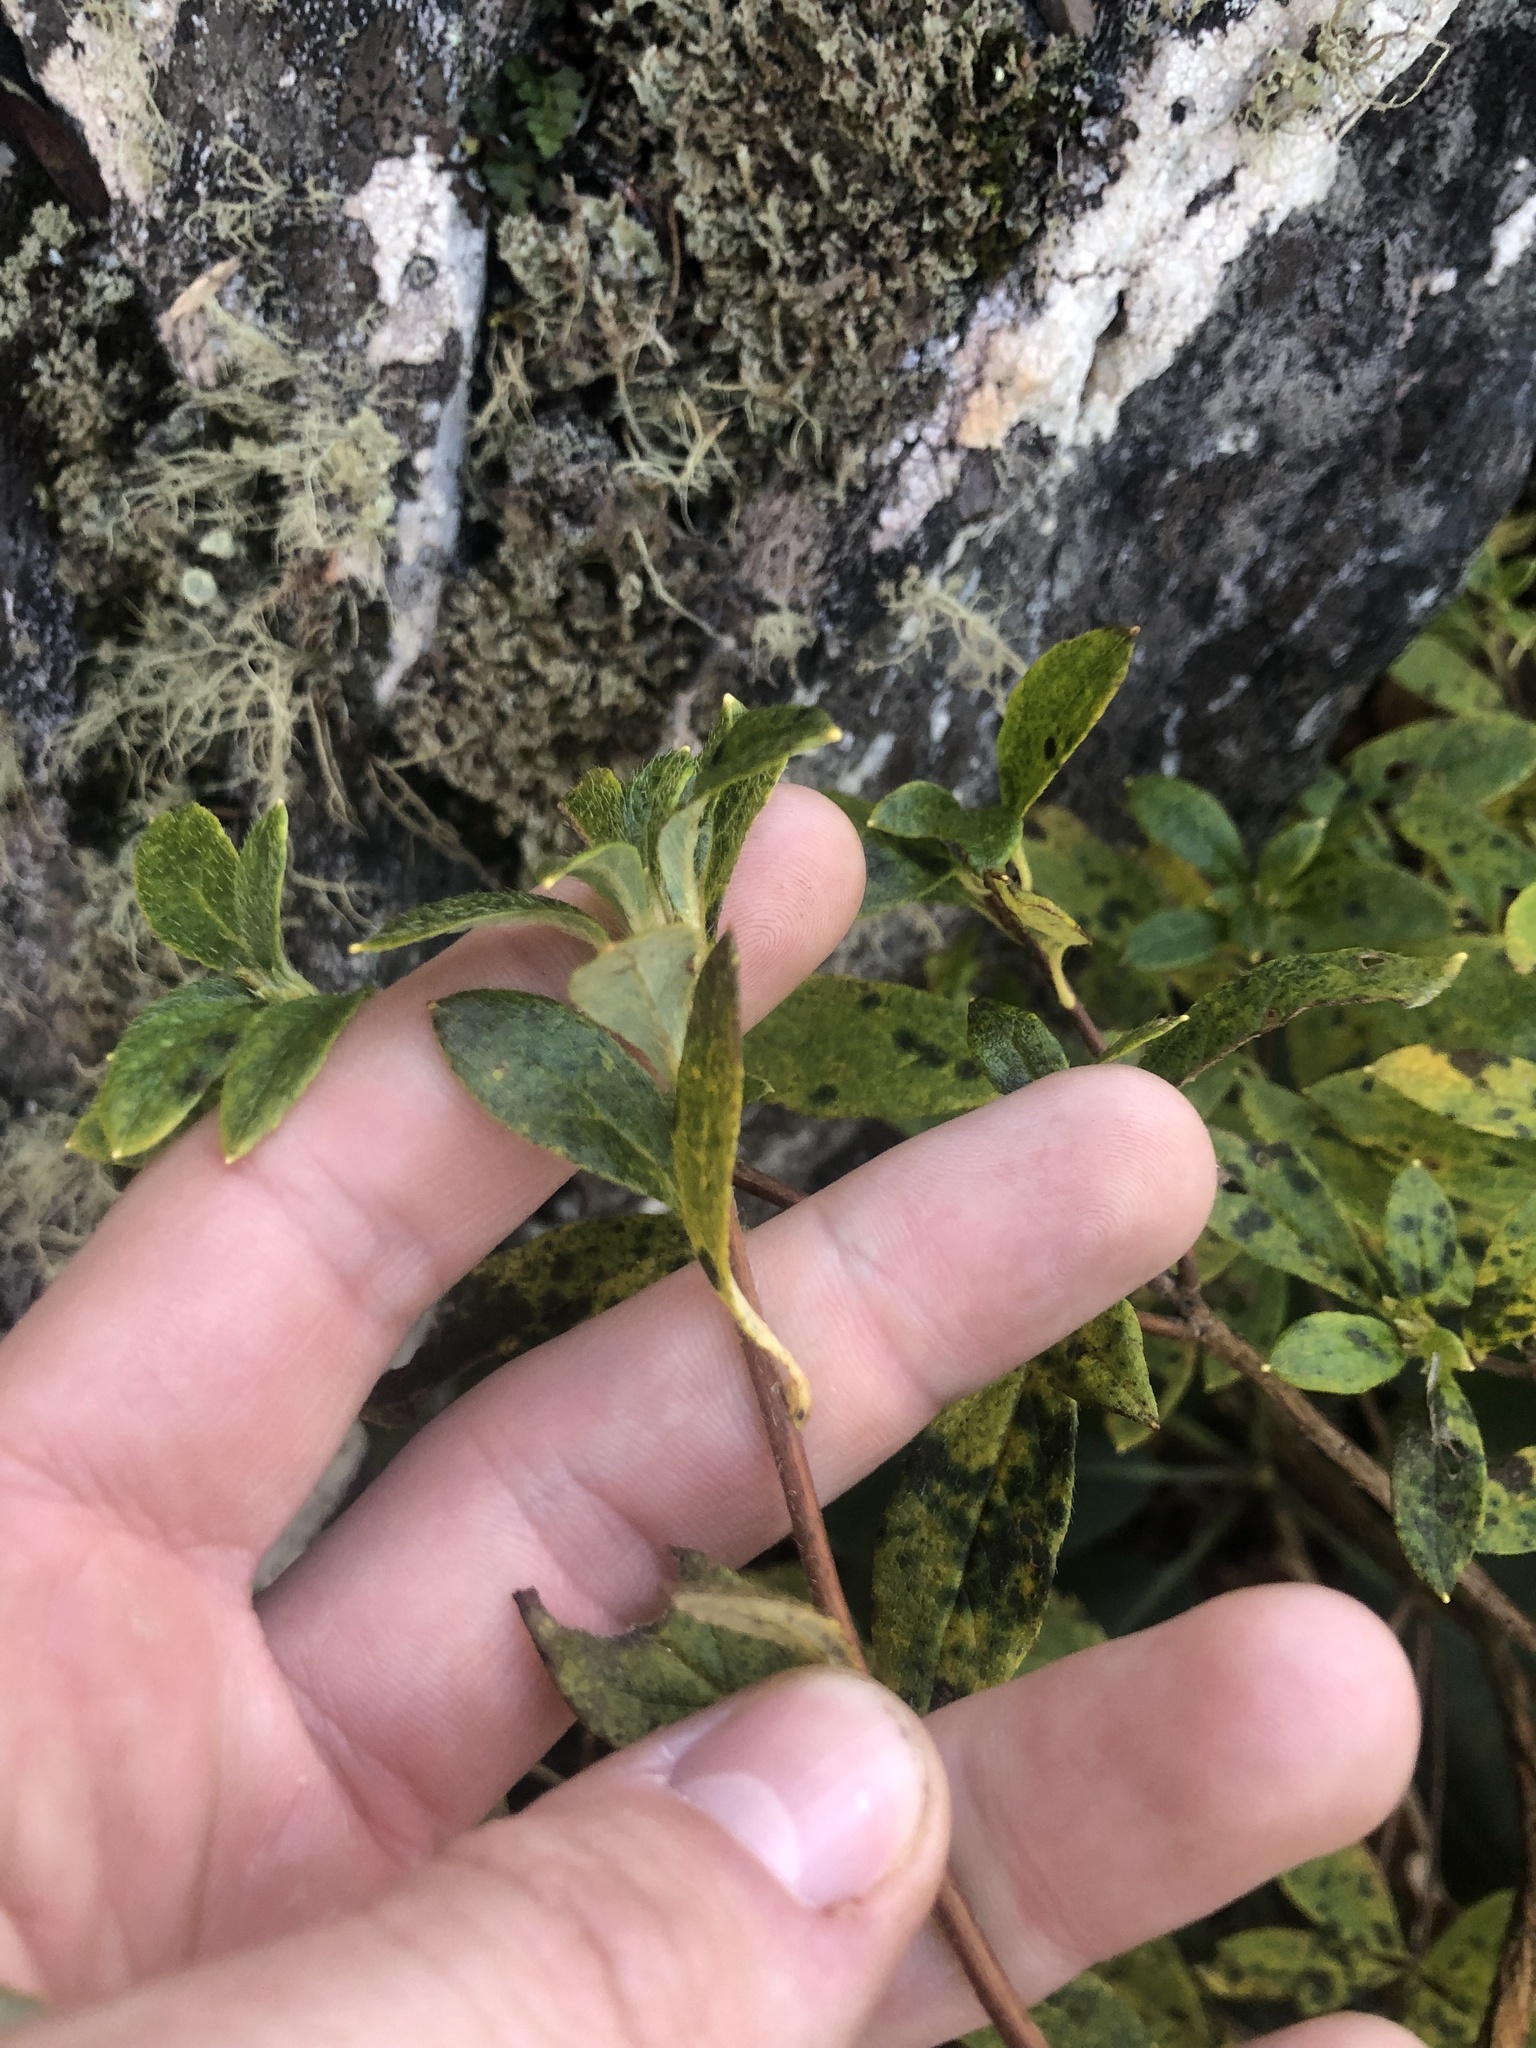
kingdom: Plantae
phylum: Tracheophyta
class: Magnoliopsida
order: Ericales
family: Ericaceae
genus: Rhododendron
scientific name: Rhododendron pilosum
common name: Hairy minniebush
